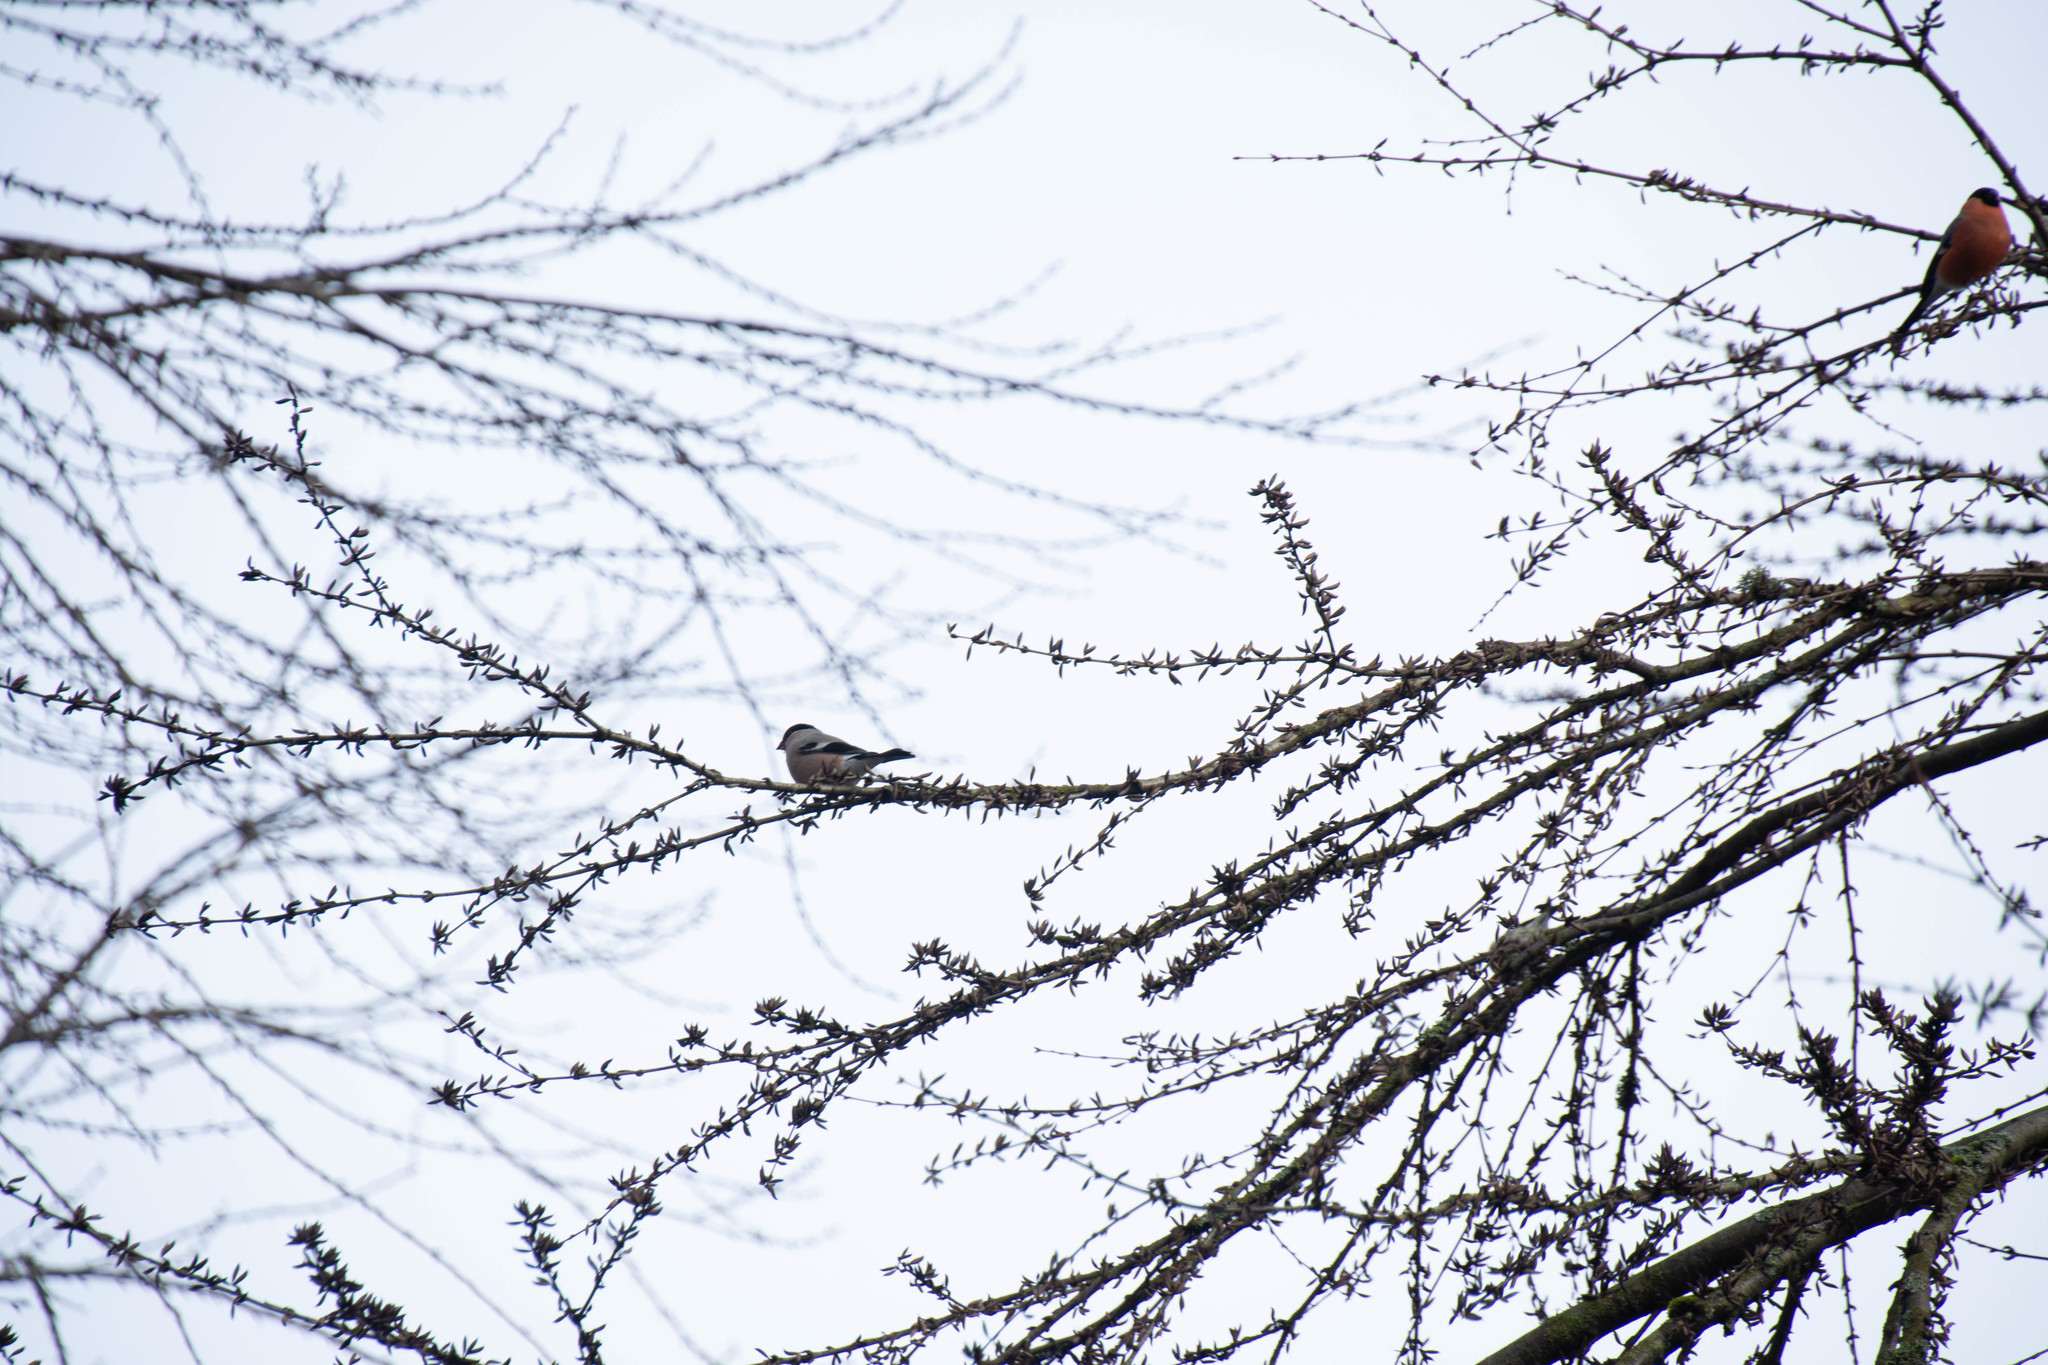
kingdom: Animalia
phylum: Chordata
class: Aves
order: Passeriformes
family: Fringillidae
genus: Pyrrhula
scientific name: Pyrrhula pyrrhula
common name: Eurasian bullfinch
